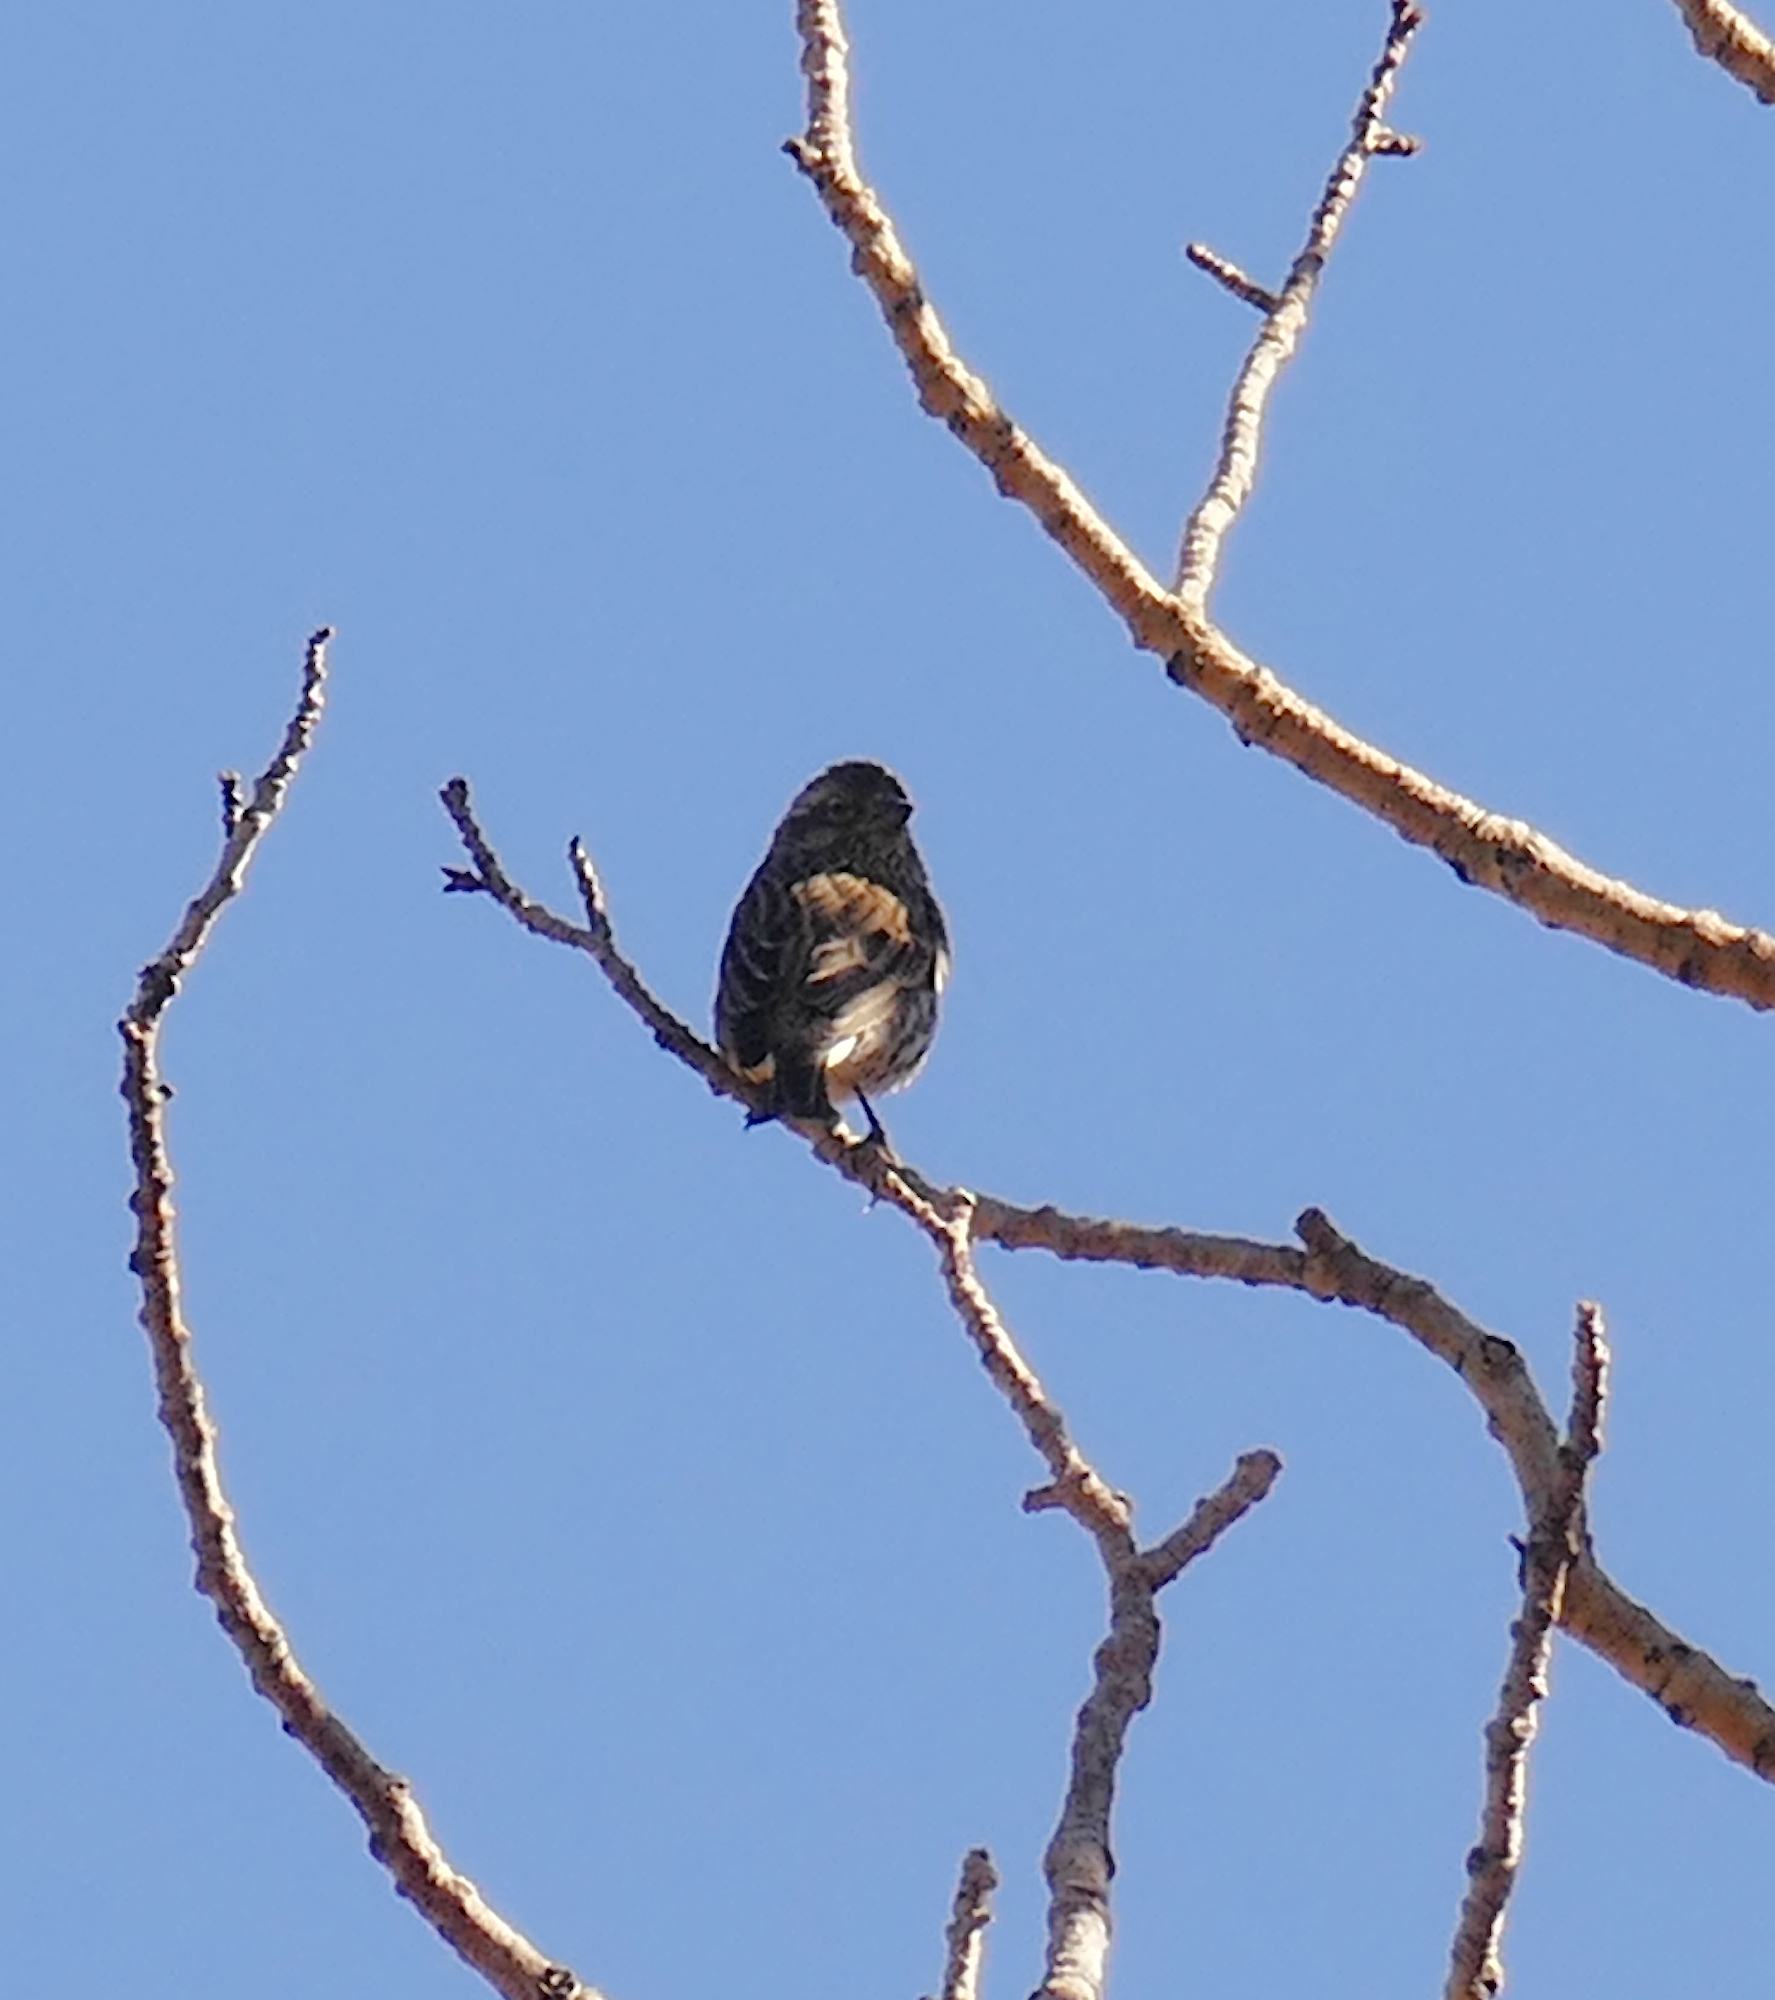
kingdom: Animalia
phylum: Chordata
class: Aves
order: Passeriformes
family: Fringillidae
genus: Haemorhous
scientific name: Haemorhous cassinii
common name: Cassin's finch
